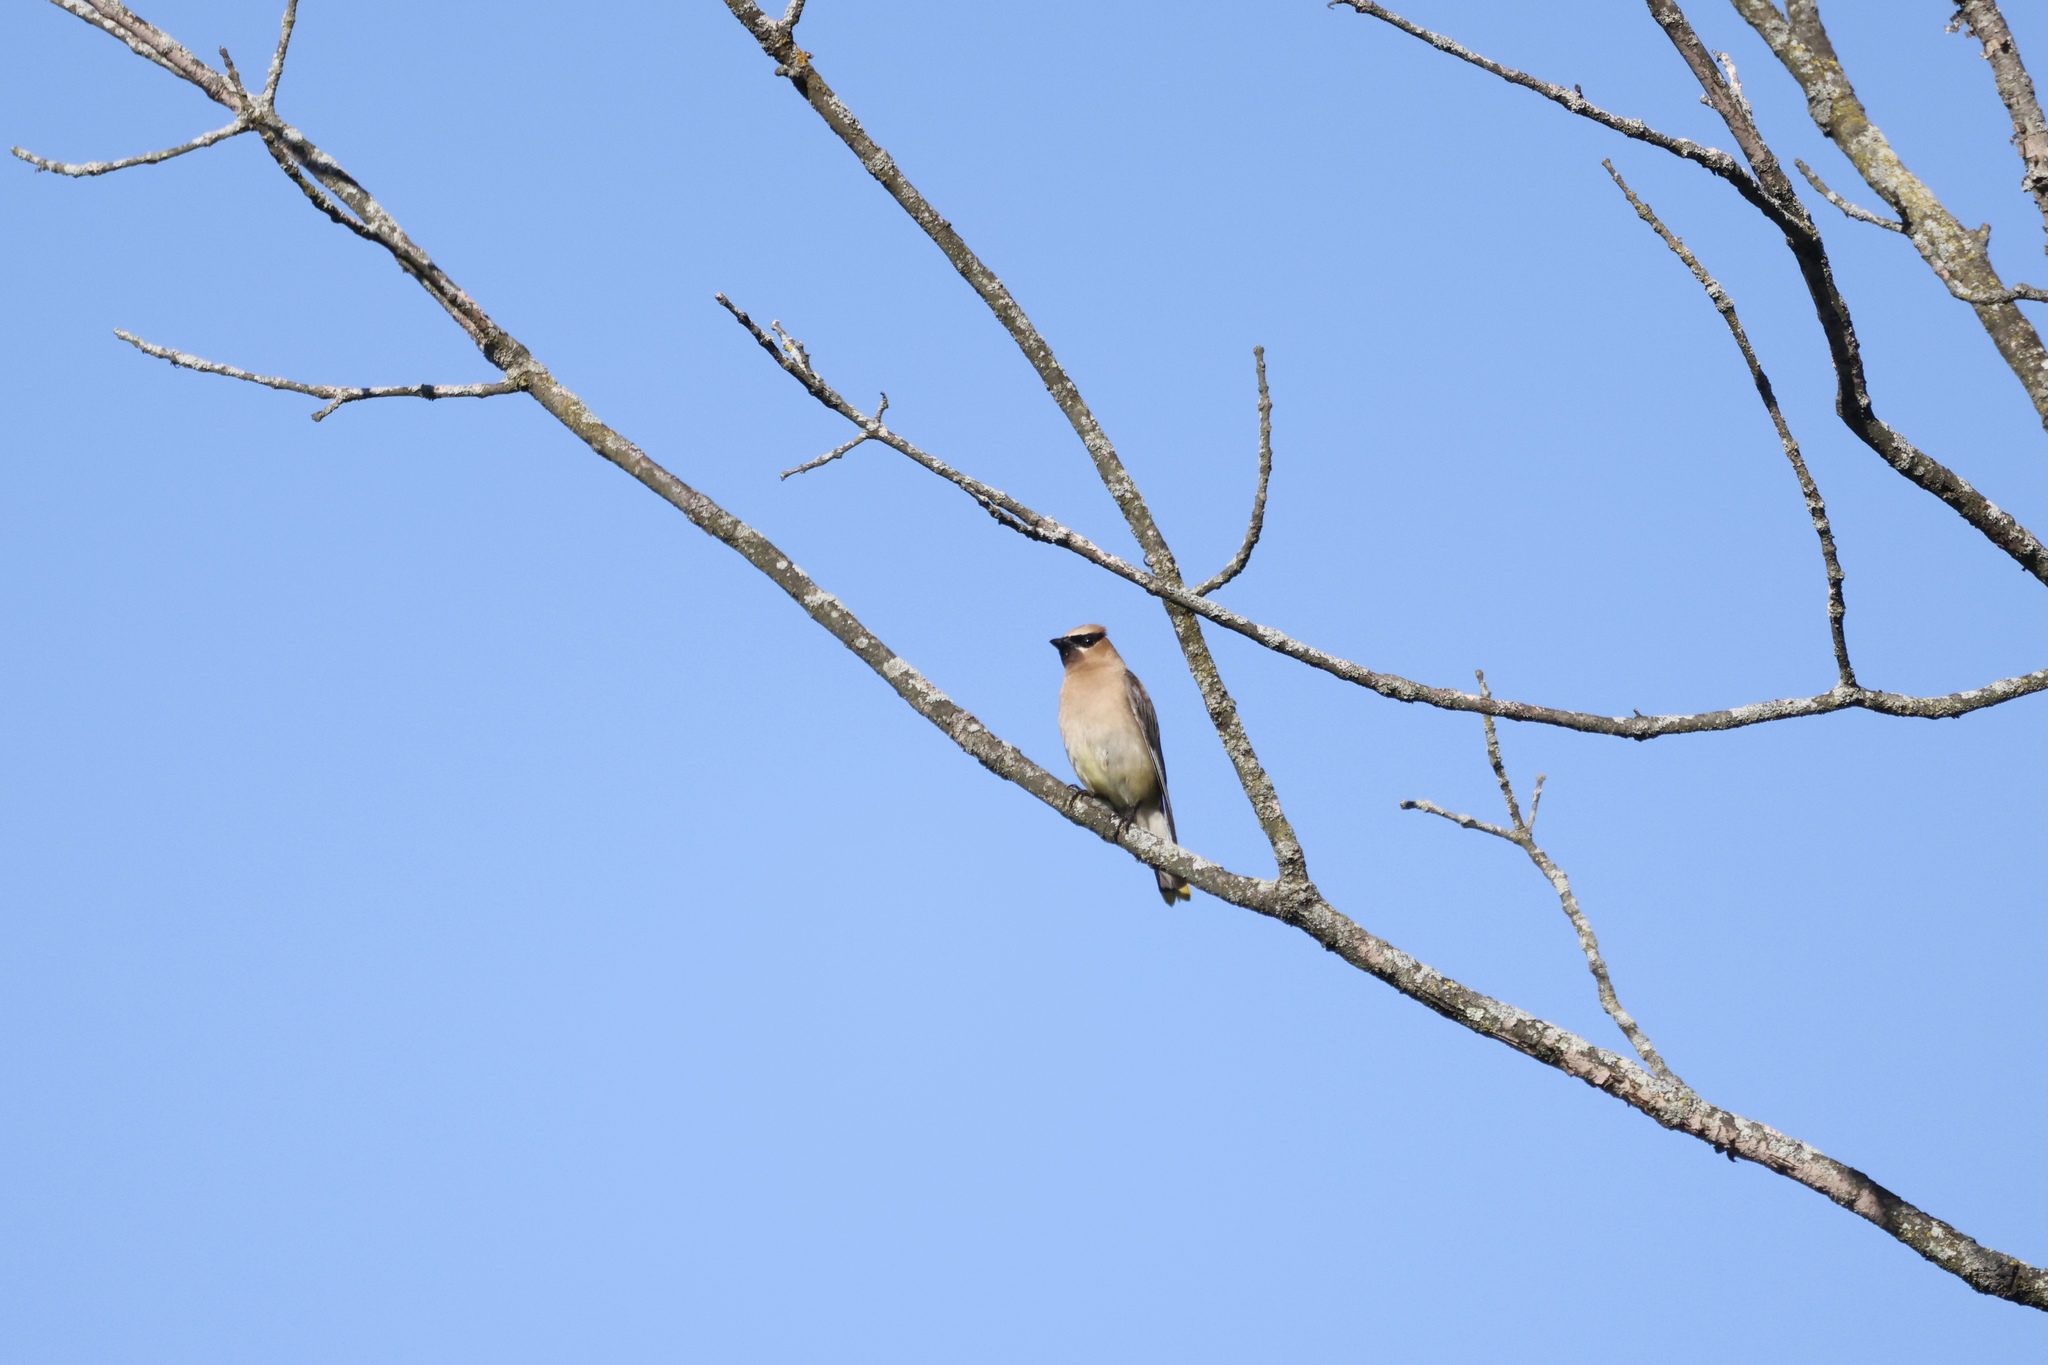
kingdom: Animalia
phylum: Chordata
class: Aves
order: Passeriformes
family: Bombycillidae
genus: Bombycilla
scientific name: Bombycilla cedrorum
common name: Cedar waxwing
